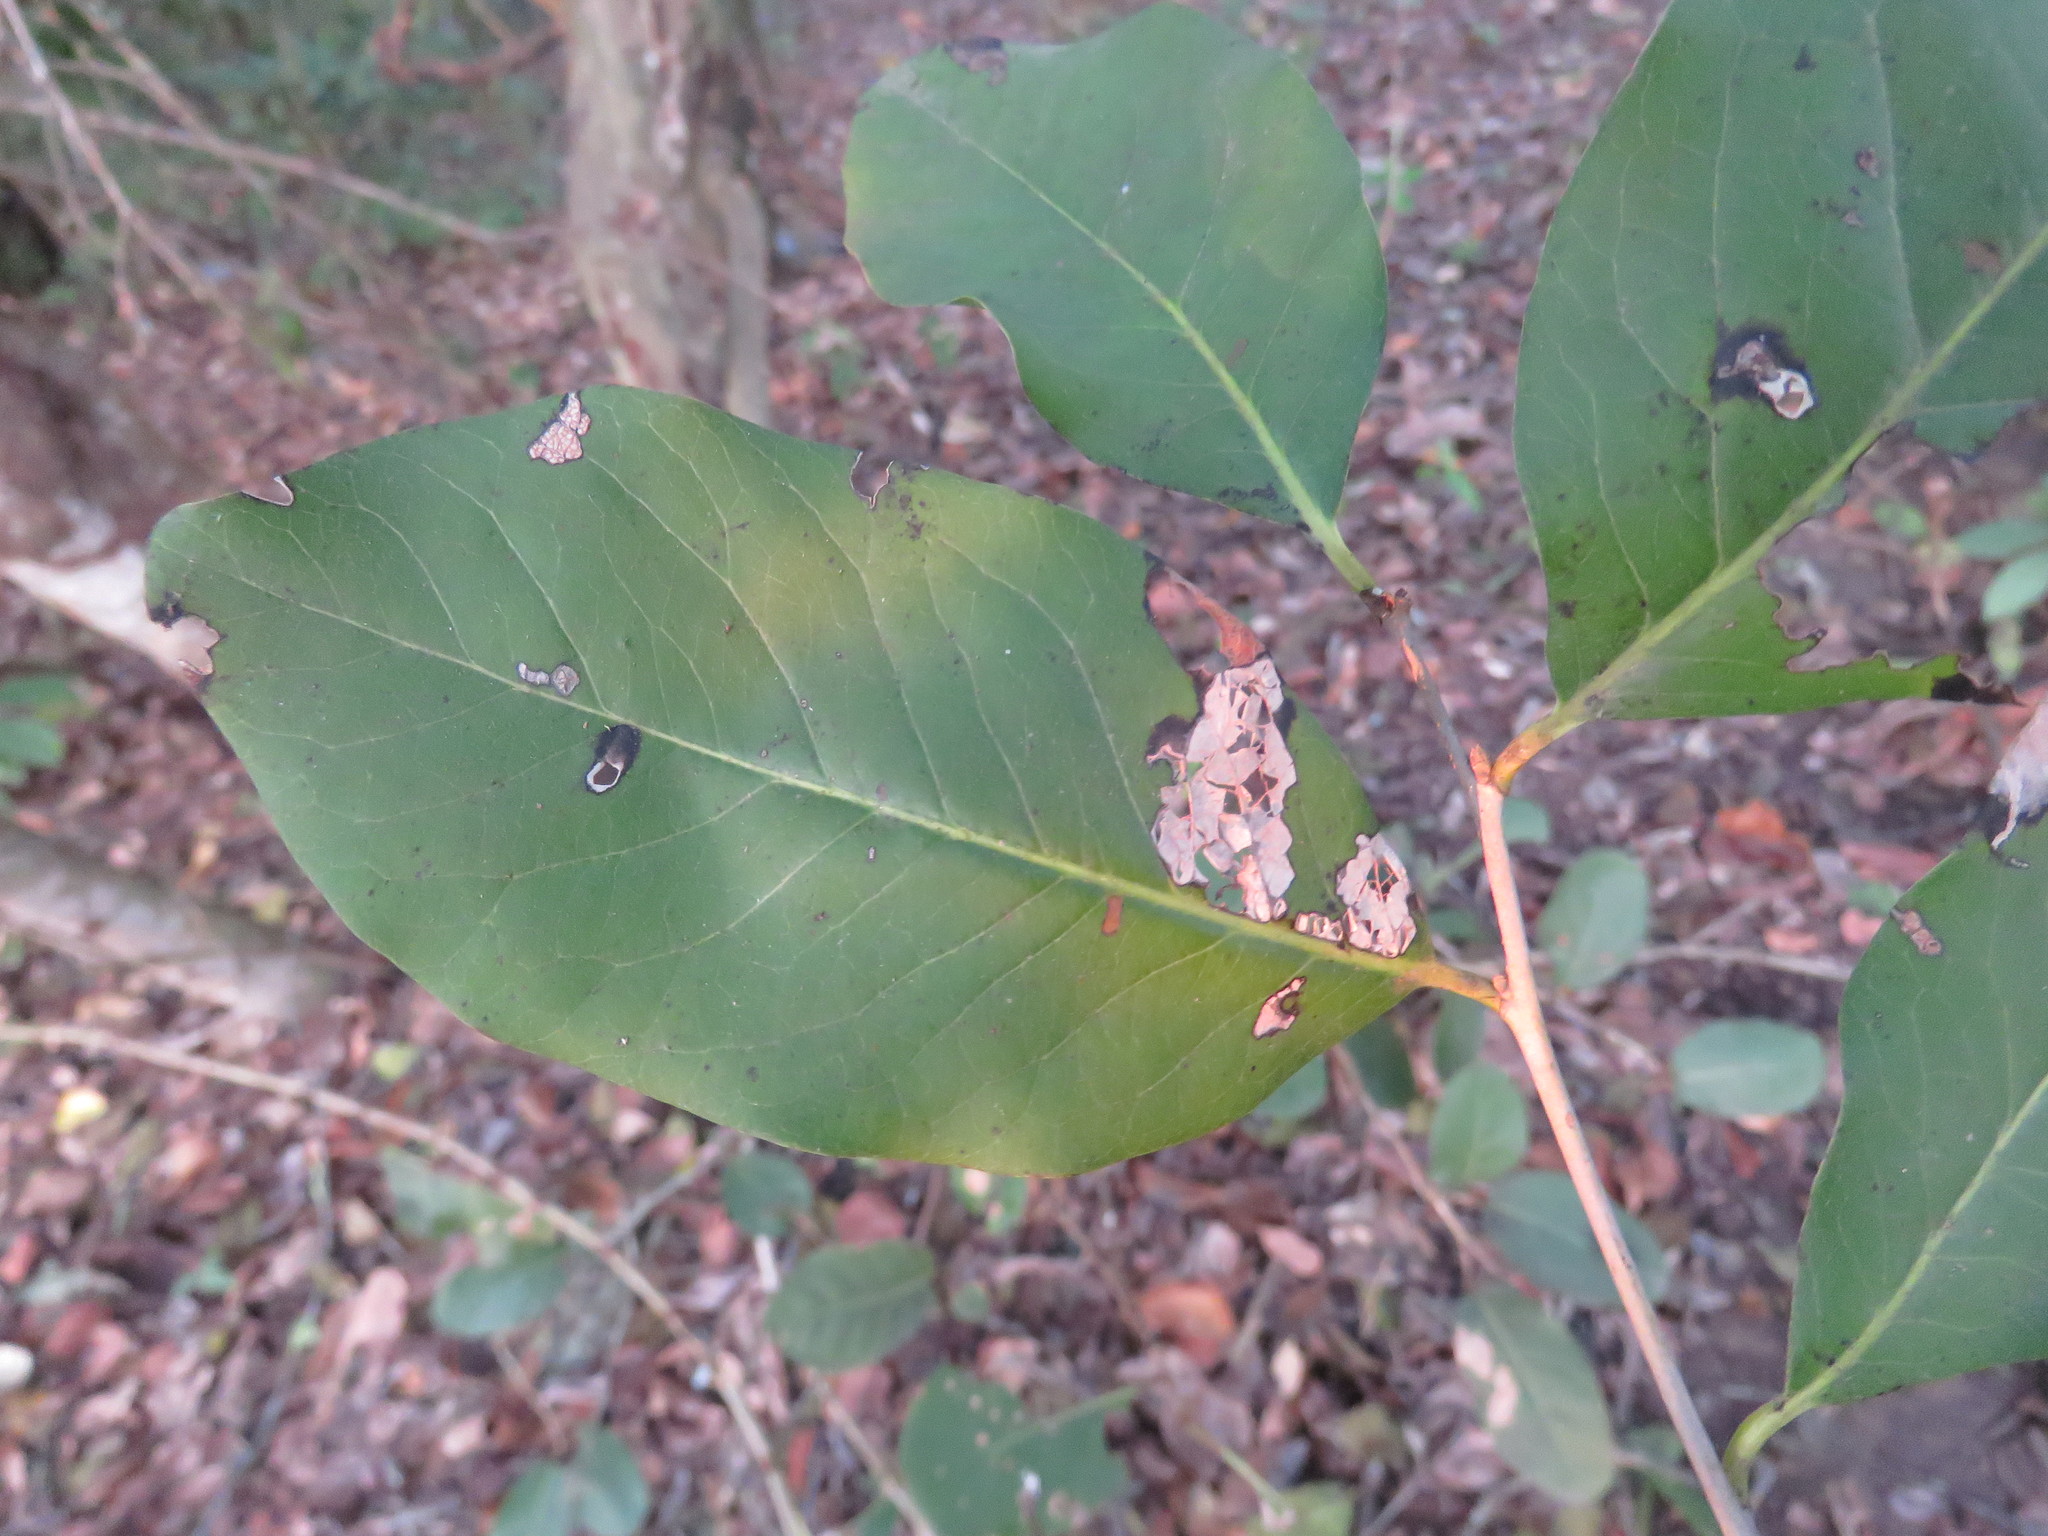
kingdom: Plantae
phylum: Tracheophyta
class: Magnoliopsida
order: Ericales
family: Ebenaceae
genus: Diospyros
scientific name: Diospyros rosei
